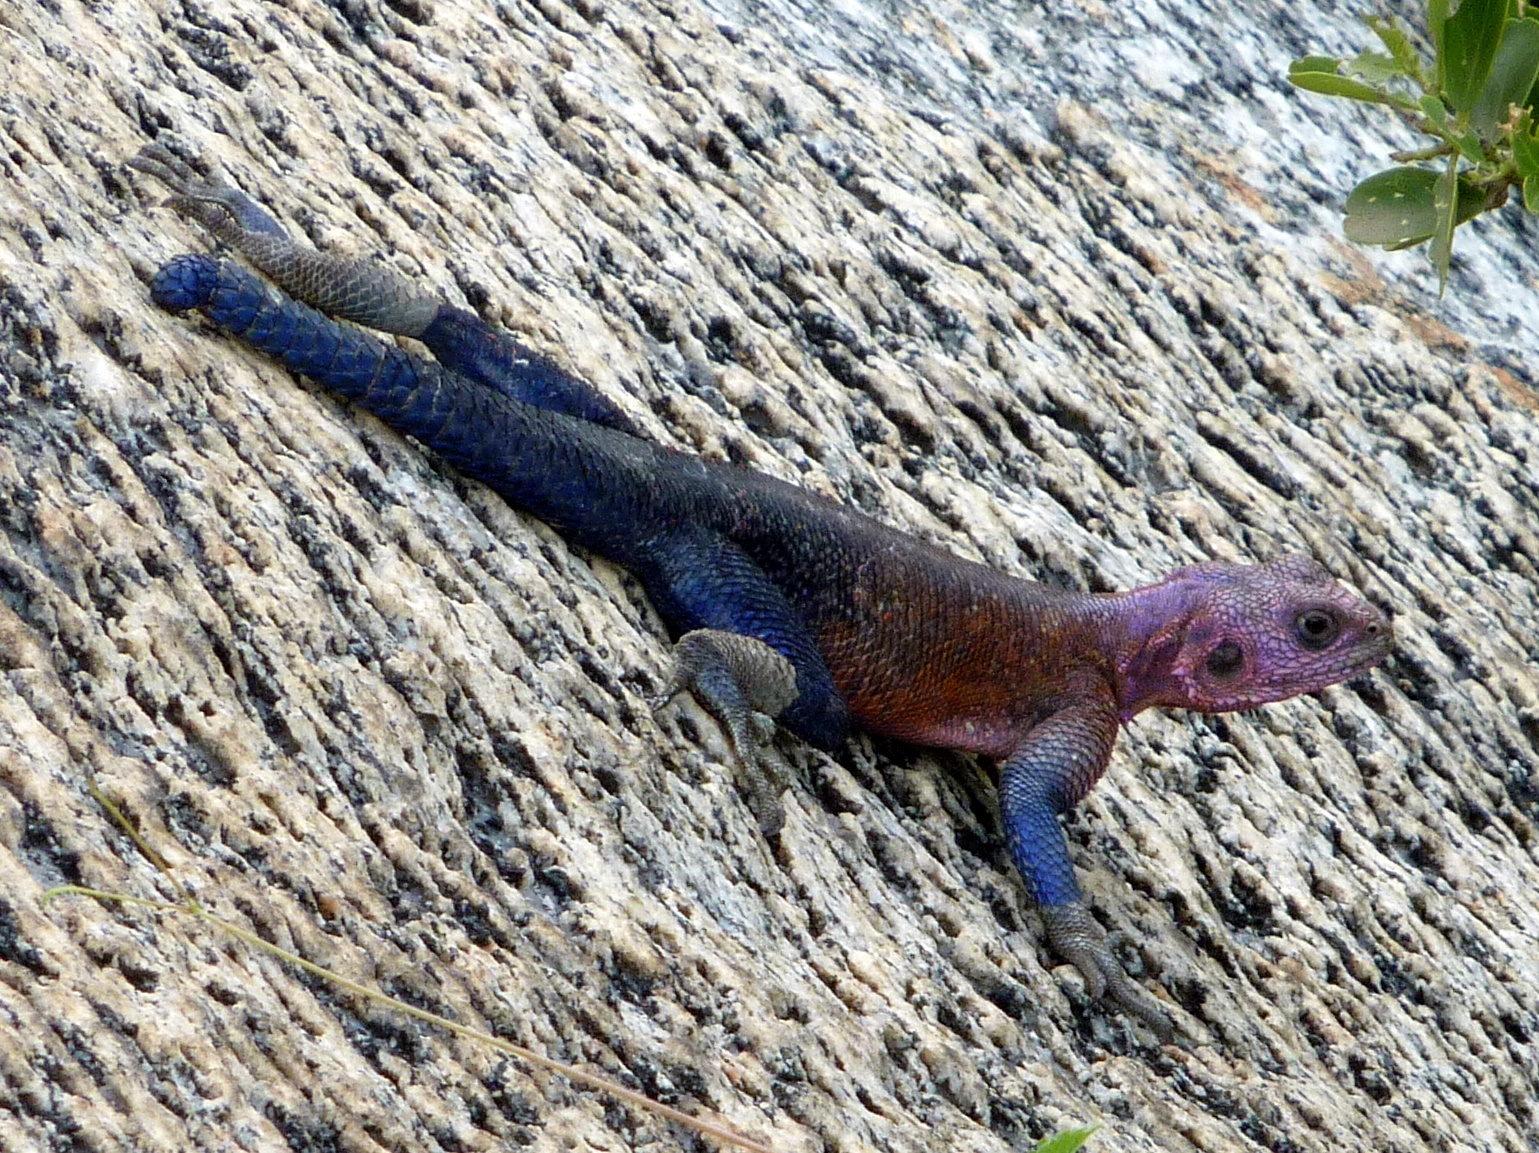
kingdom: Animalia
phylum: Chordata
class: Squamata
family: Agamidae
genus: Agama
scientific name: Agama mwanzae
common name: Mwanza flat-headed agama
